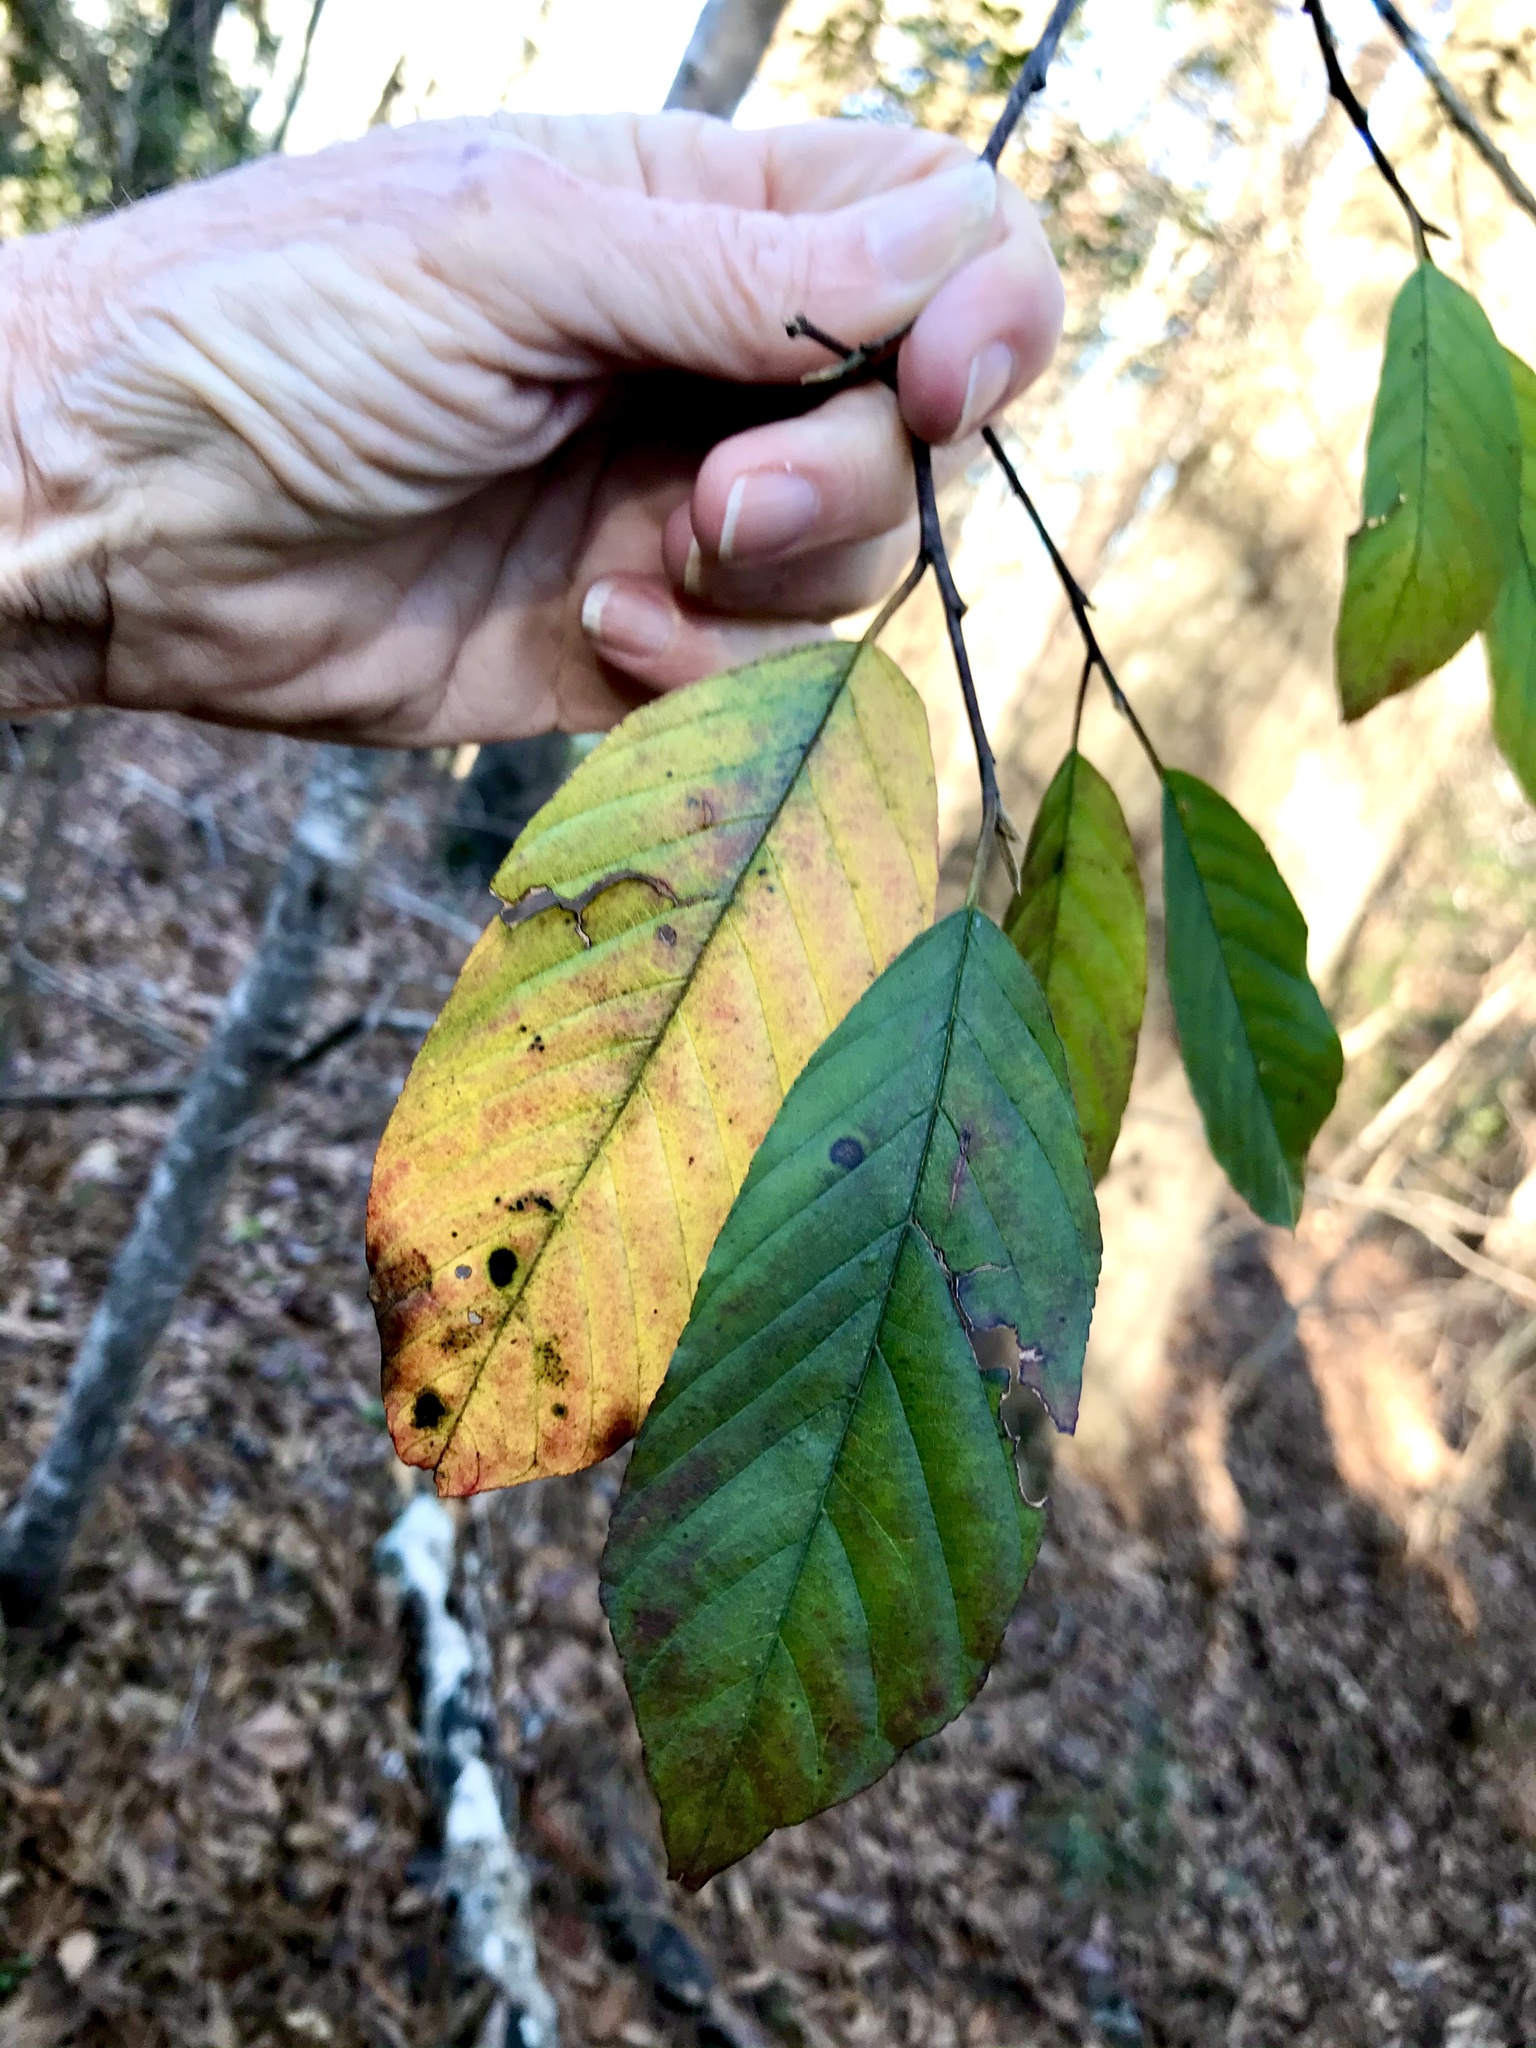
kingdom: Plantae
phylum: Tracheophyta
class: Magnoliopsida
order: Rosales
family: Rhamnaceae
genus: Frangula
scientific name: Frangula caroliniana
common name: Carolina buckthorn
